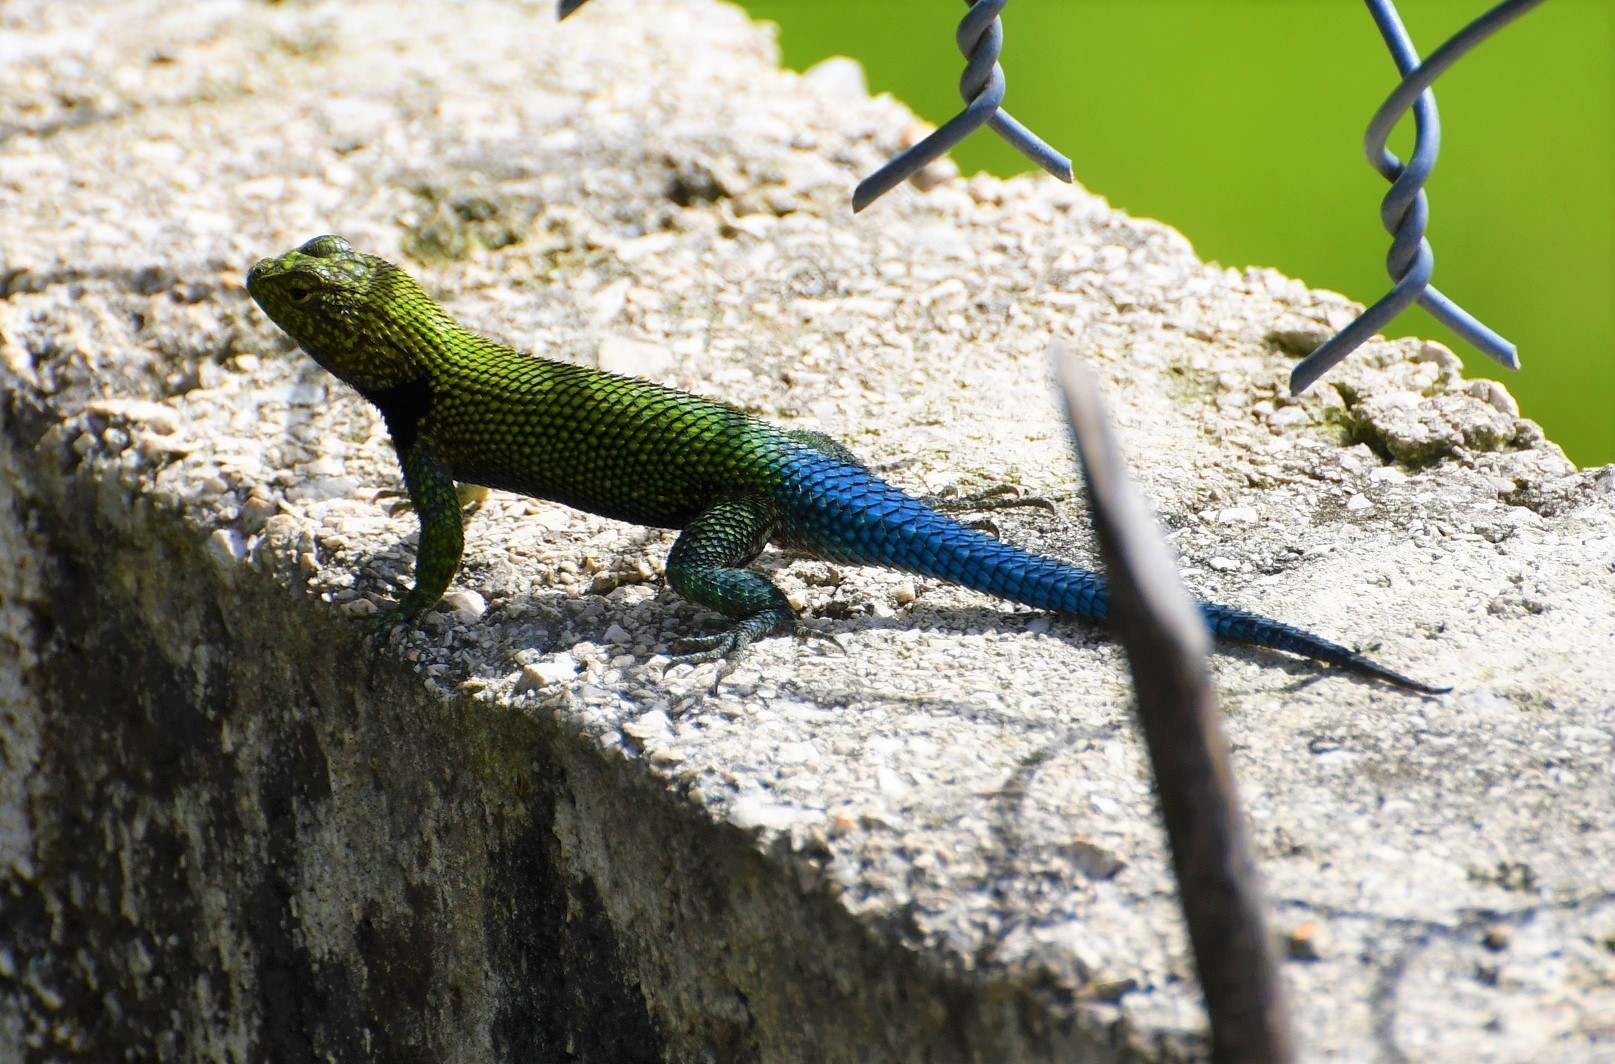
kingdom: Animalia
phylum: Chordata
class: Squamata
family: Phrynosomatidae
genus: Sceloporus
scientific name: Sceloporus taeniocnemis
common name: Guatemalan emerald spiny lizard
